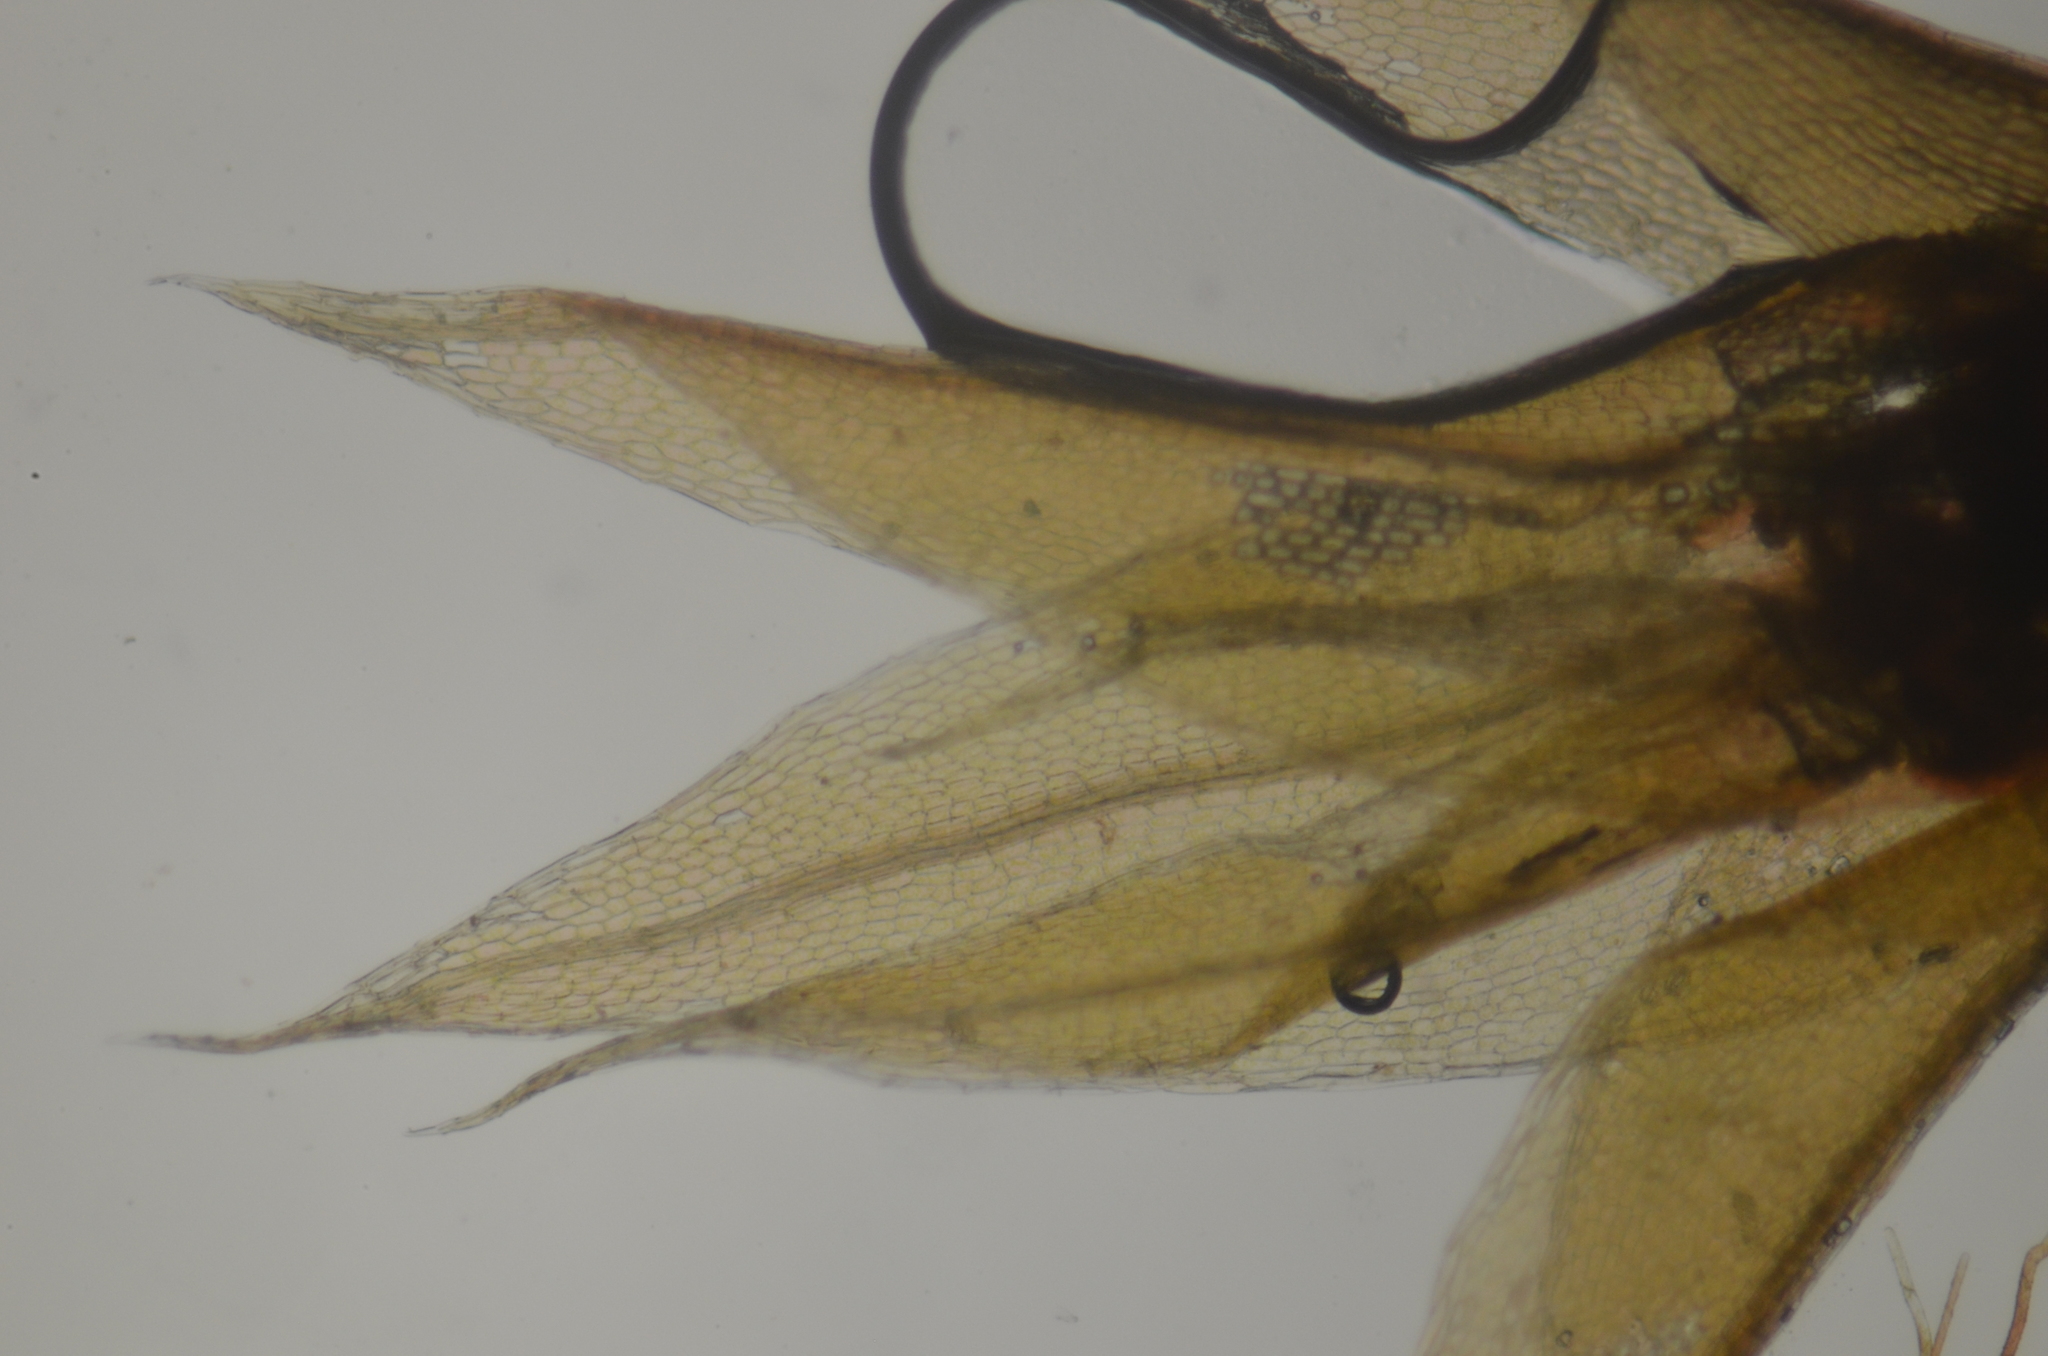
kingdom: Plantae
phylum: Bryophyta
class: Bryopsida
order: Bryales
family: Bryaceae
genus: Ptychostomum
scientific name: Ptychostomum weigelii
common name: Weigel's bryum moss
